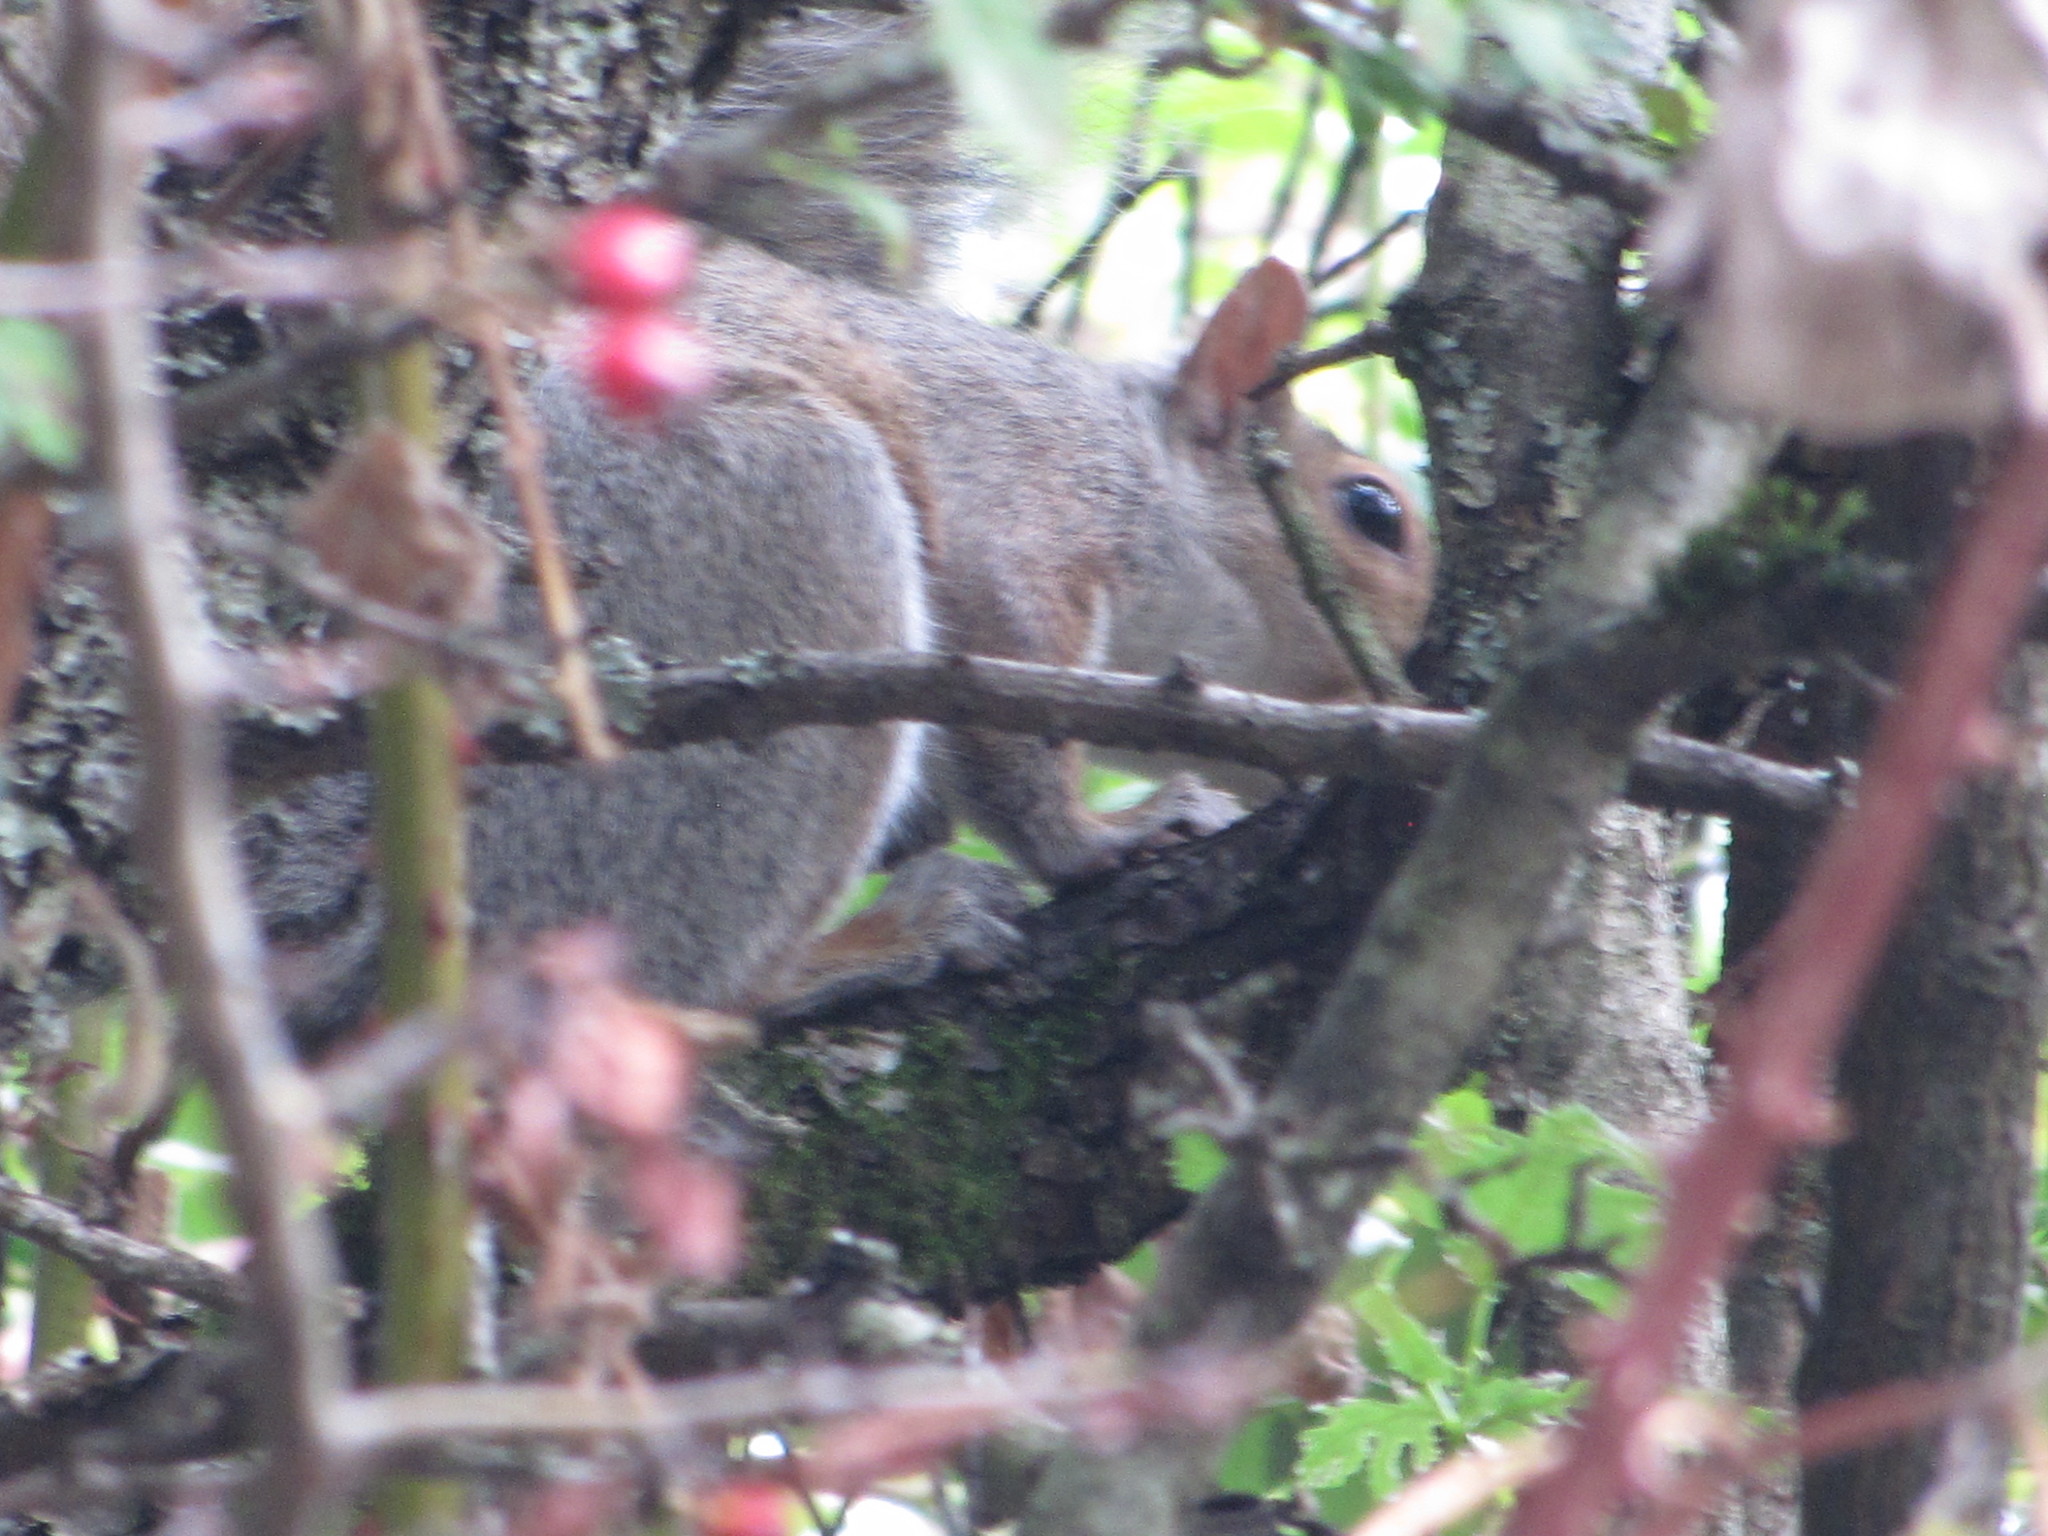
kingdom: Animalia
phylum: Chordata
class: Mammalia
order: Rodentia
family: Sciuridae
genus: Sciurus
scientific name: Sciurus carolinensis
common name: Eastern gray squirrel
